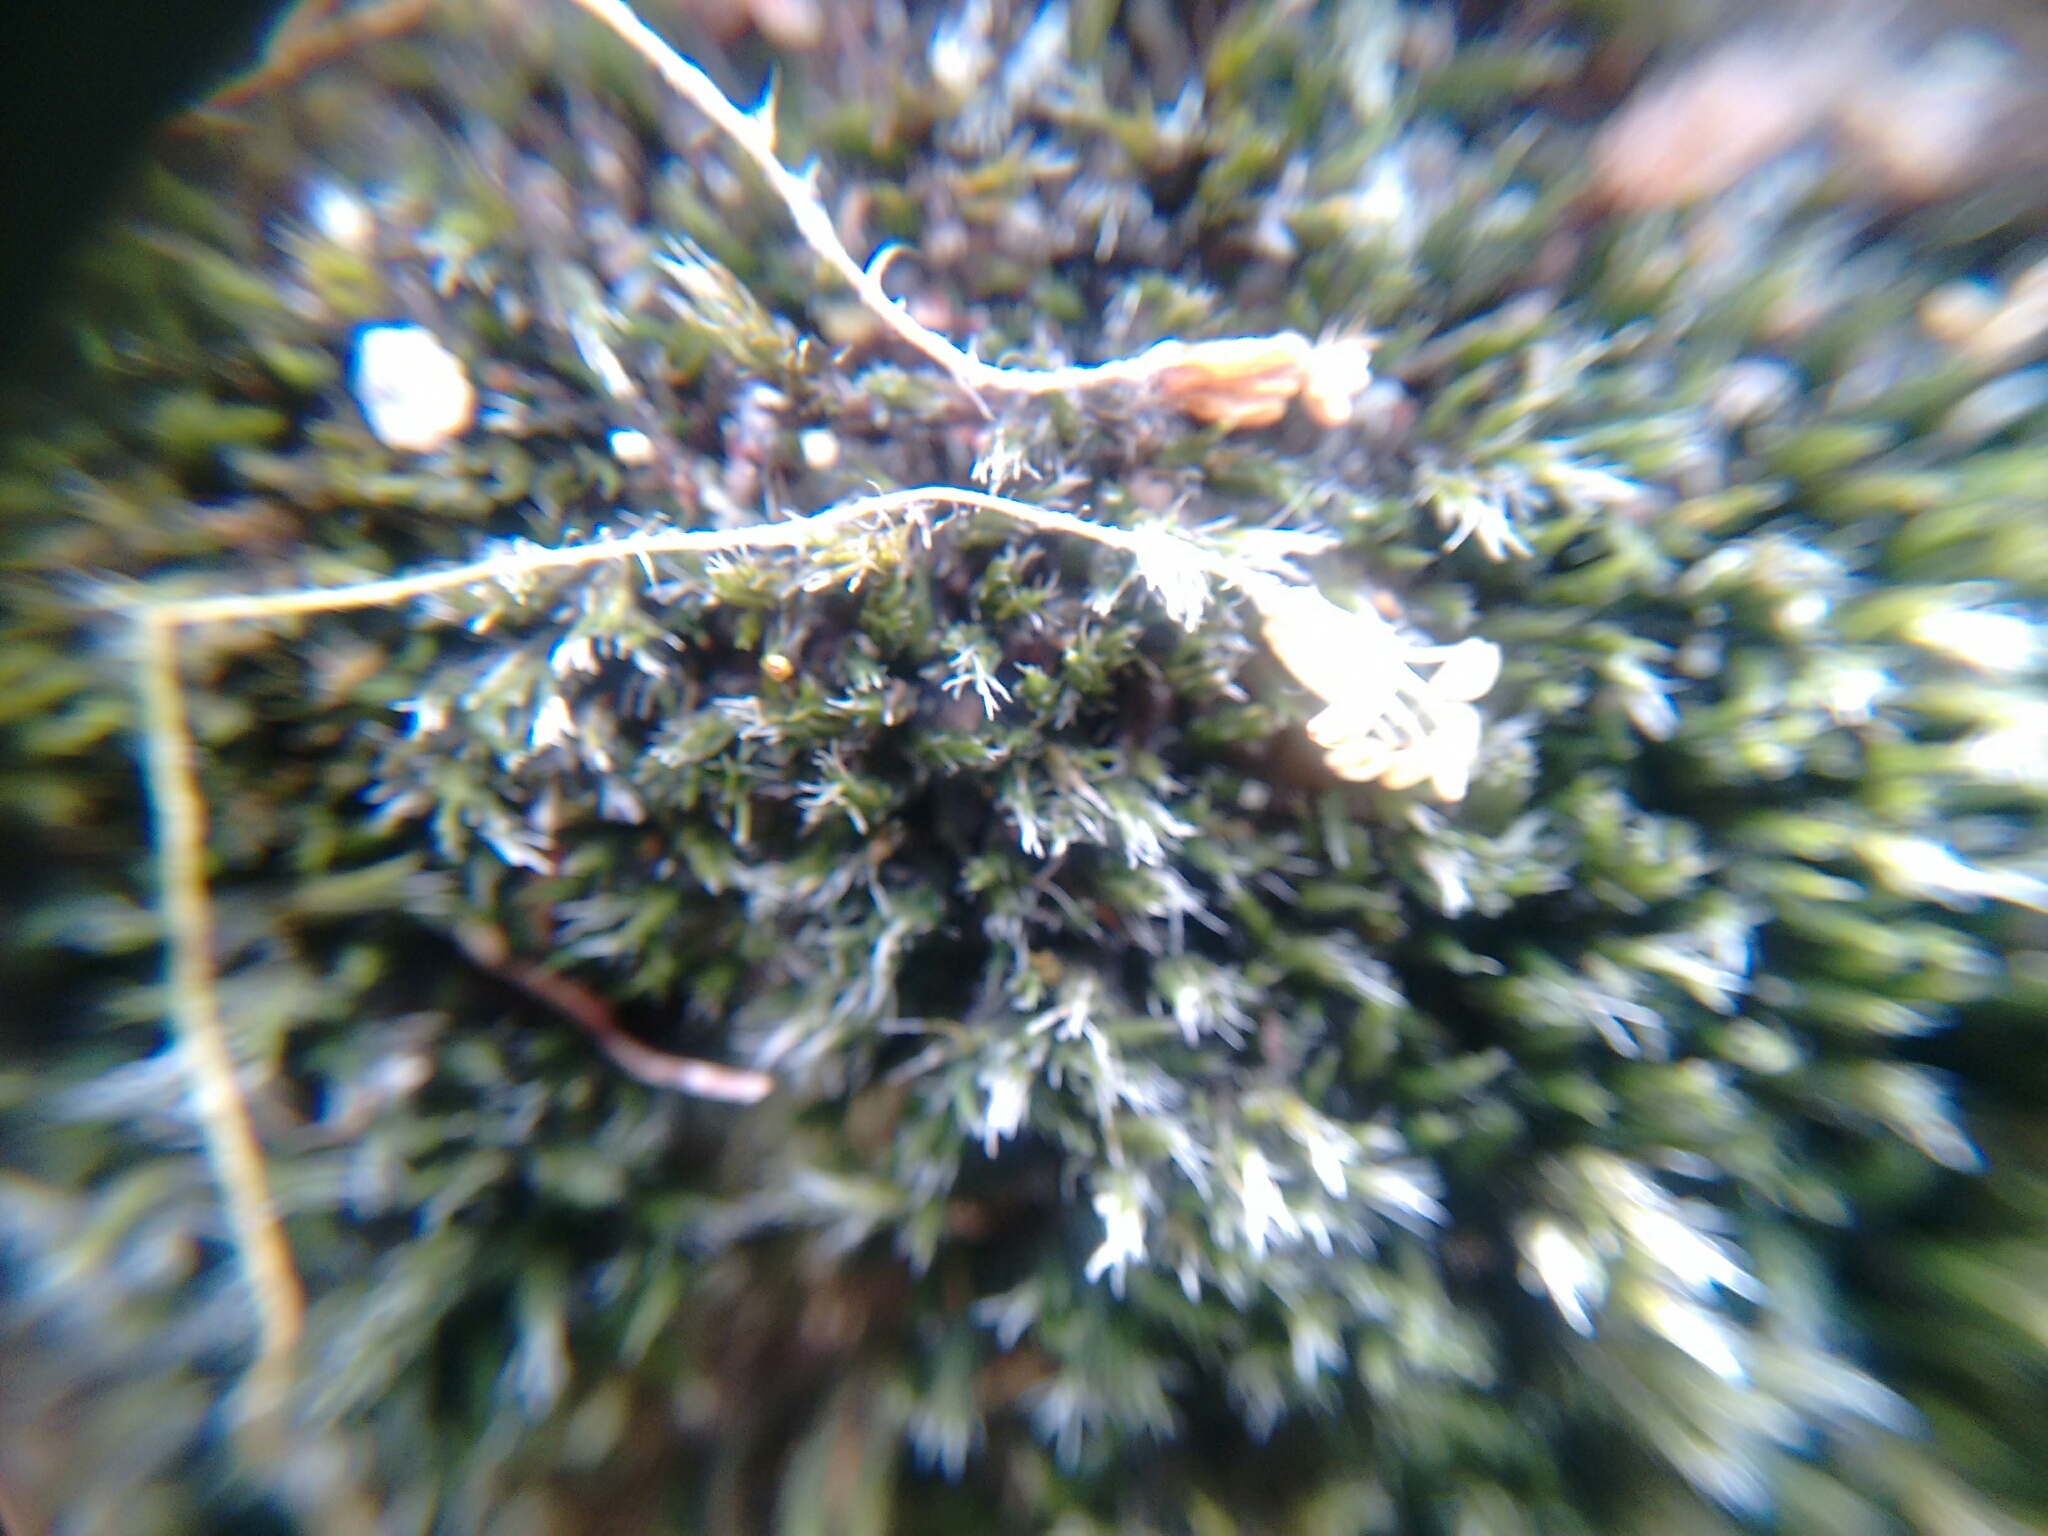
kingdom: Plantae
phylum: Bryophyta
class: Bryopsida
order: Grimmiales
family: Grimmiaceae
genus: Grimmia
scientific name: Grimmia pilifera
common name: Hair grimmia
